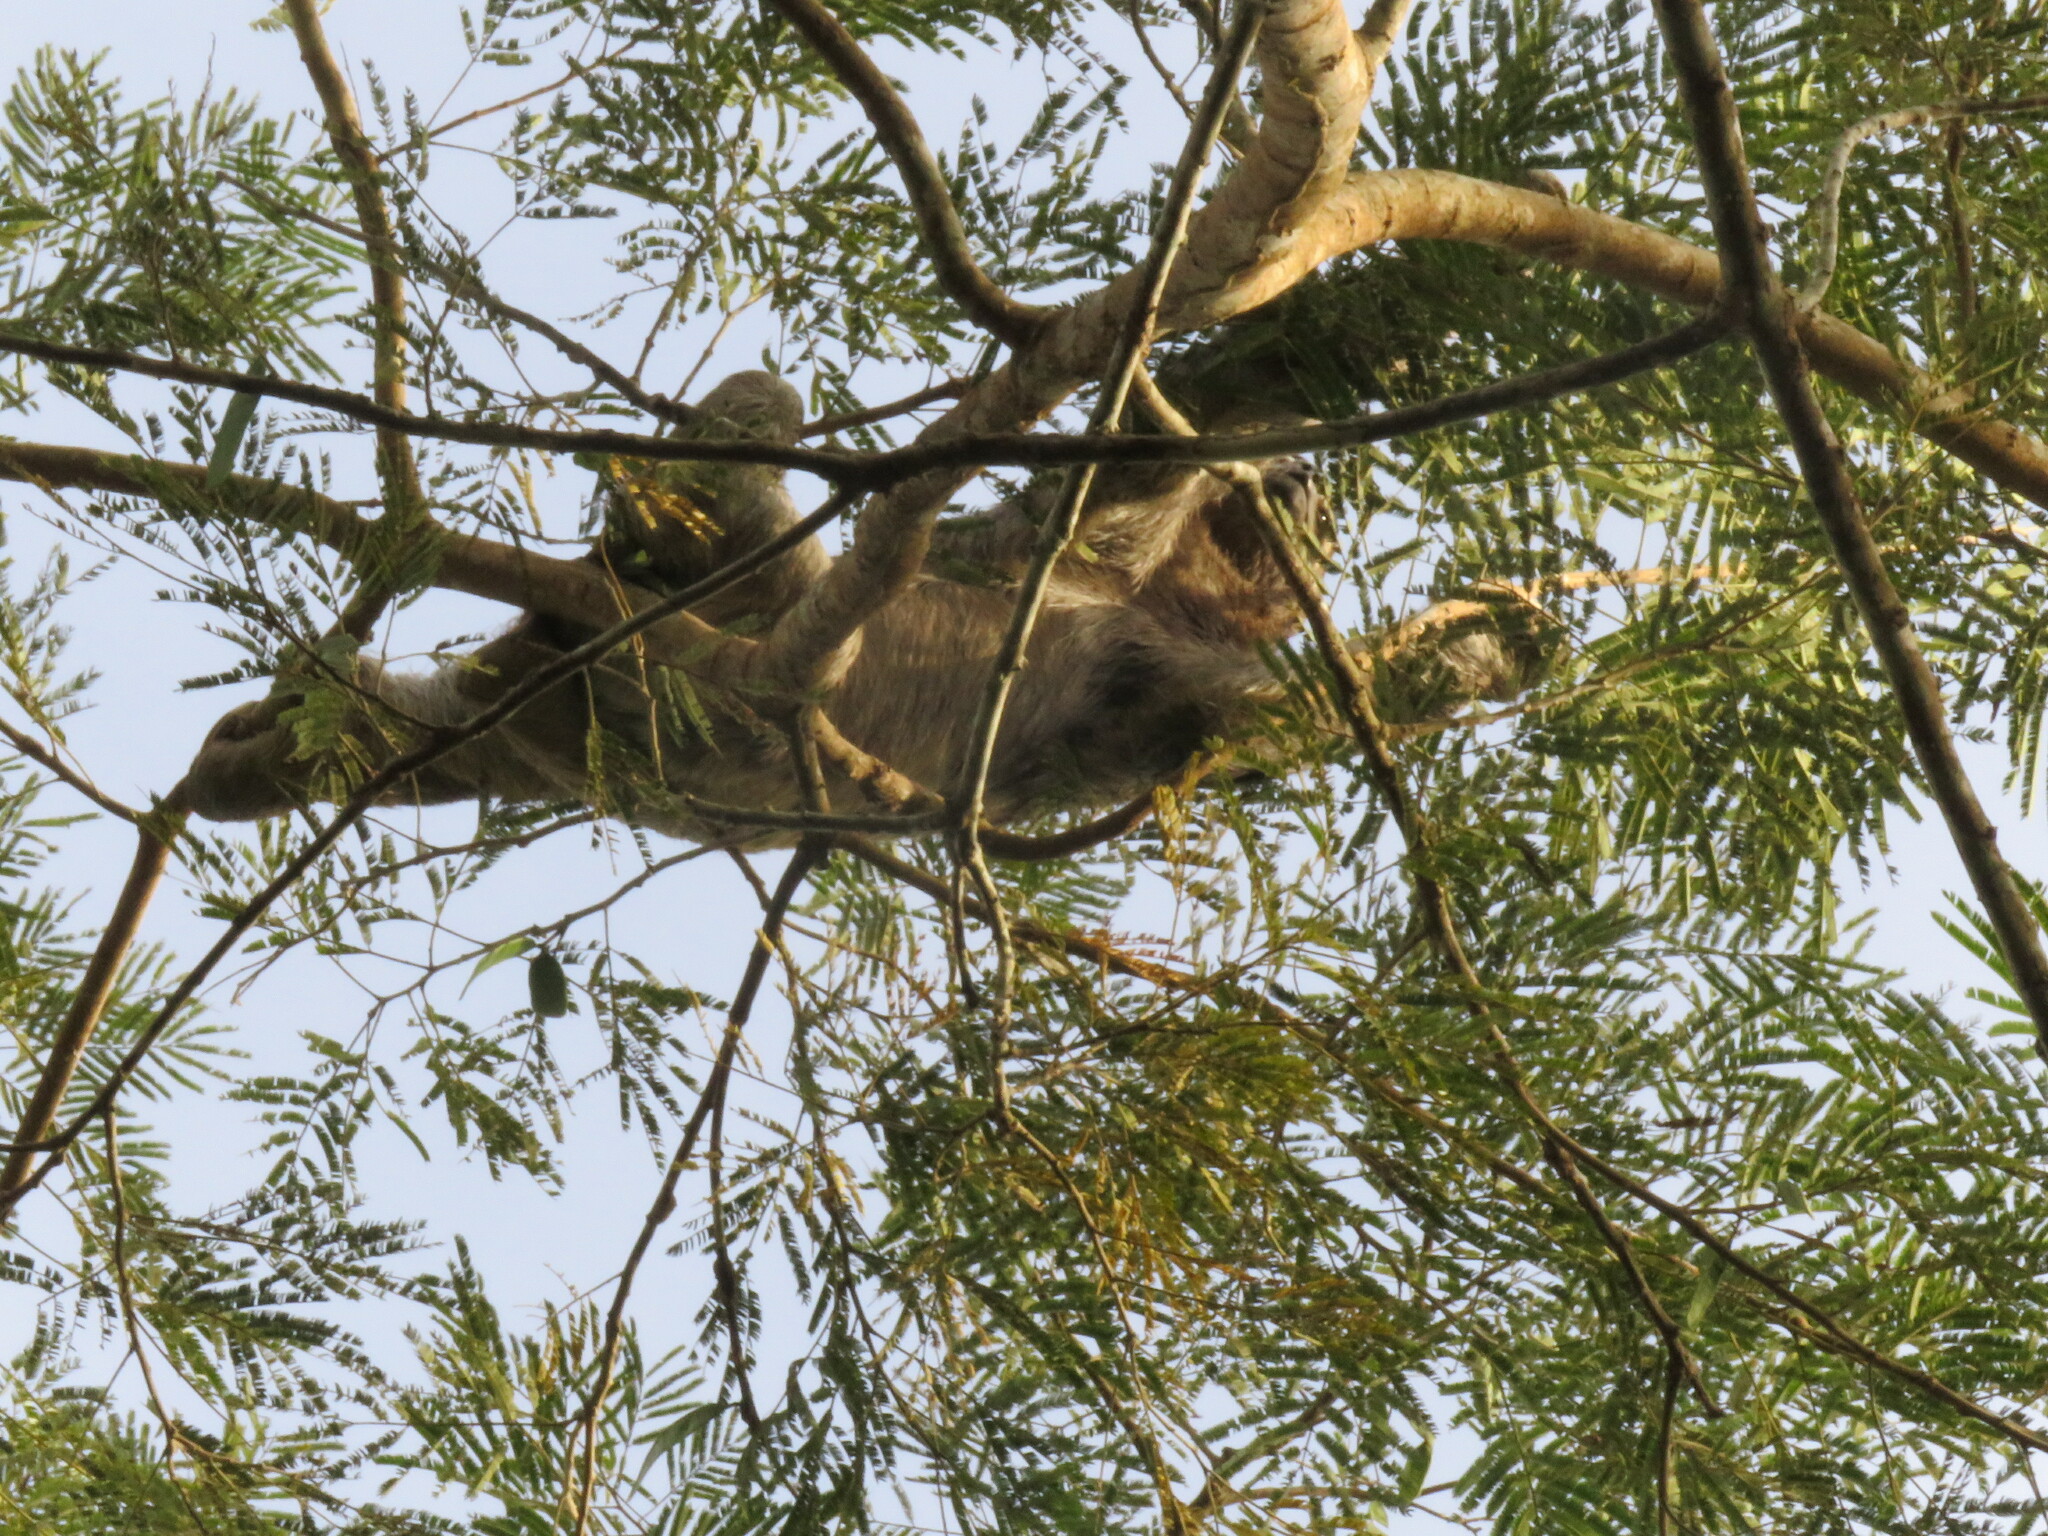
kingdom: Animalia
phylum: Chordata
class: Mammalia
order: Pilosa
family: Bradypodidae
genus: Bradypus
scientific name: Bradypus variegatus
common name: Brown-throated three-toed sloth
